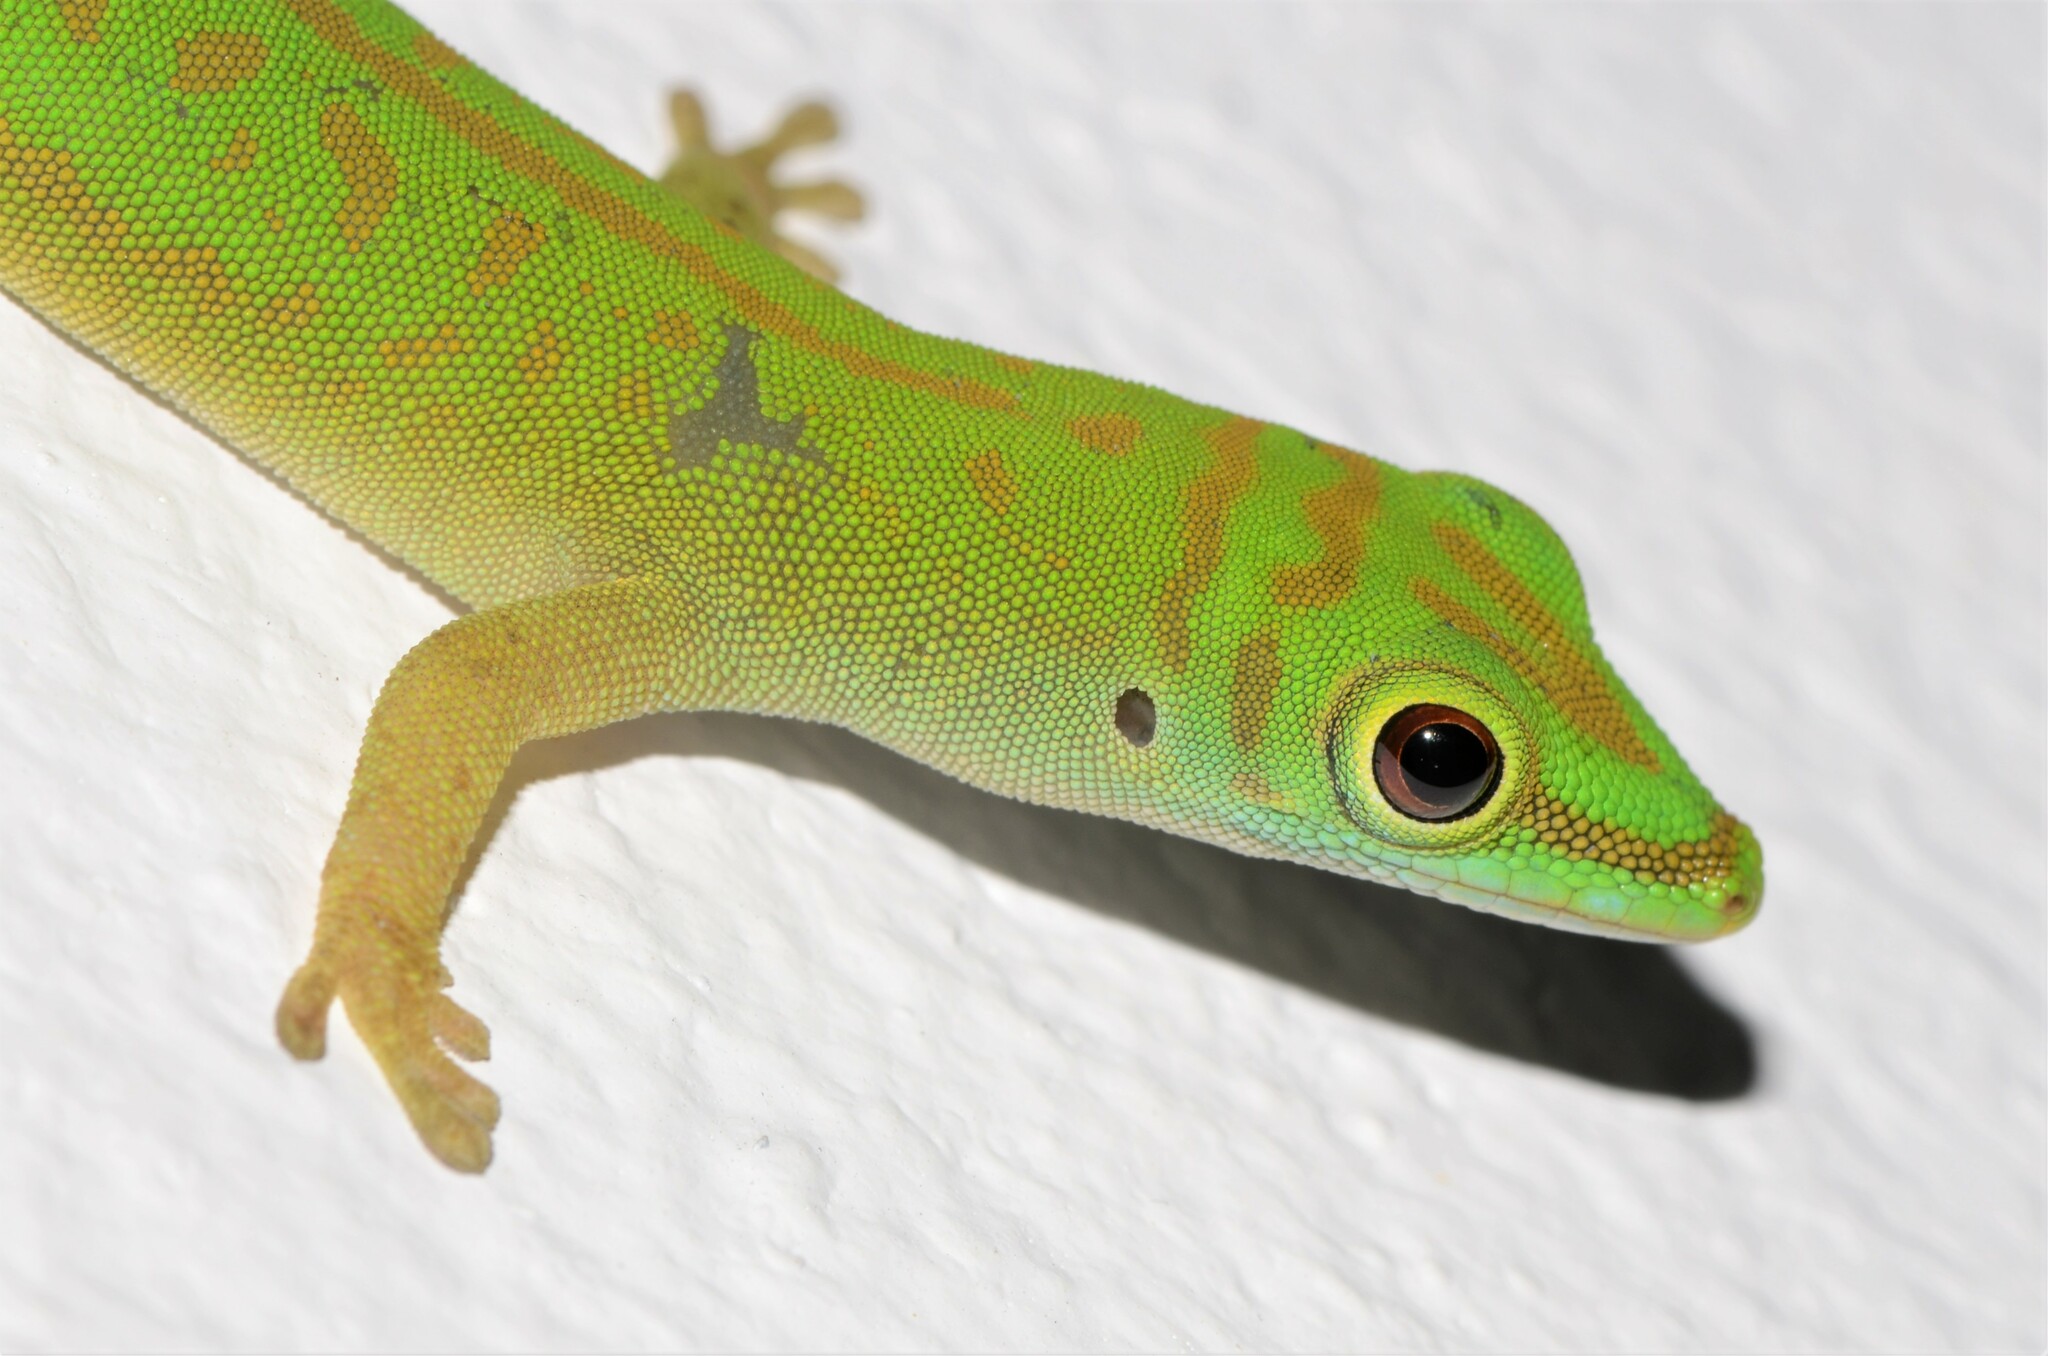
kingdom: Animalia
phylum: Chordata
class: Squamata
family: Gekkonidae
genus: Phelsuma
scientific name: Phelsuma astriata
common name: Seychelles day gecko
